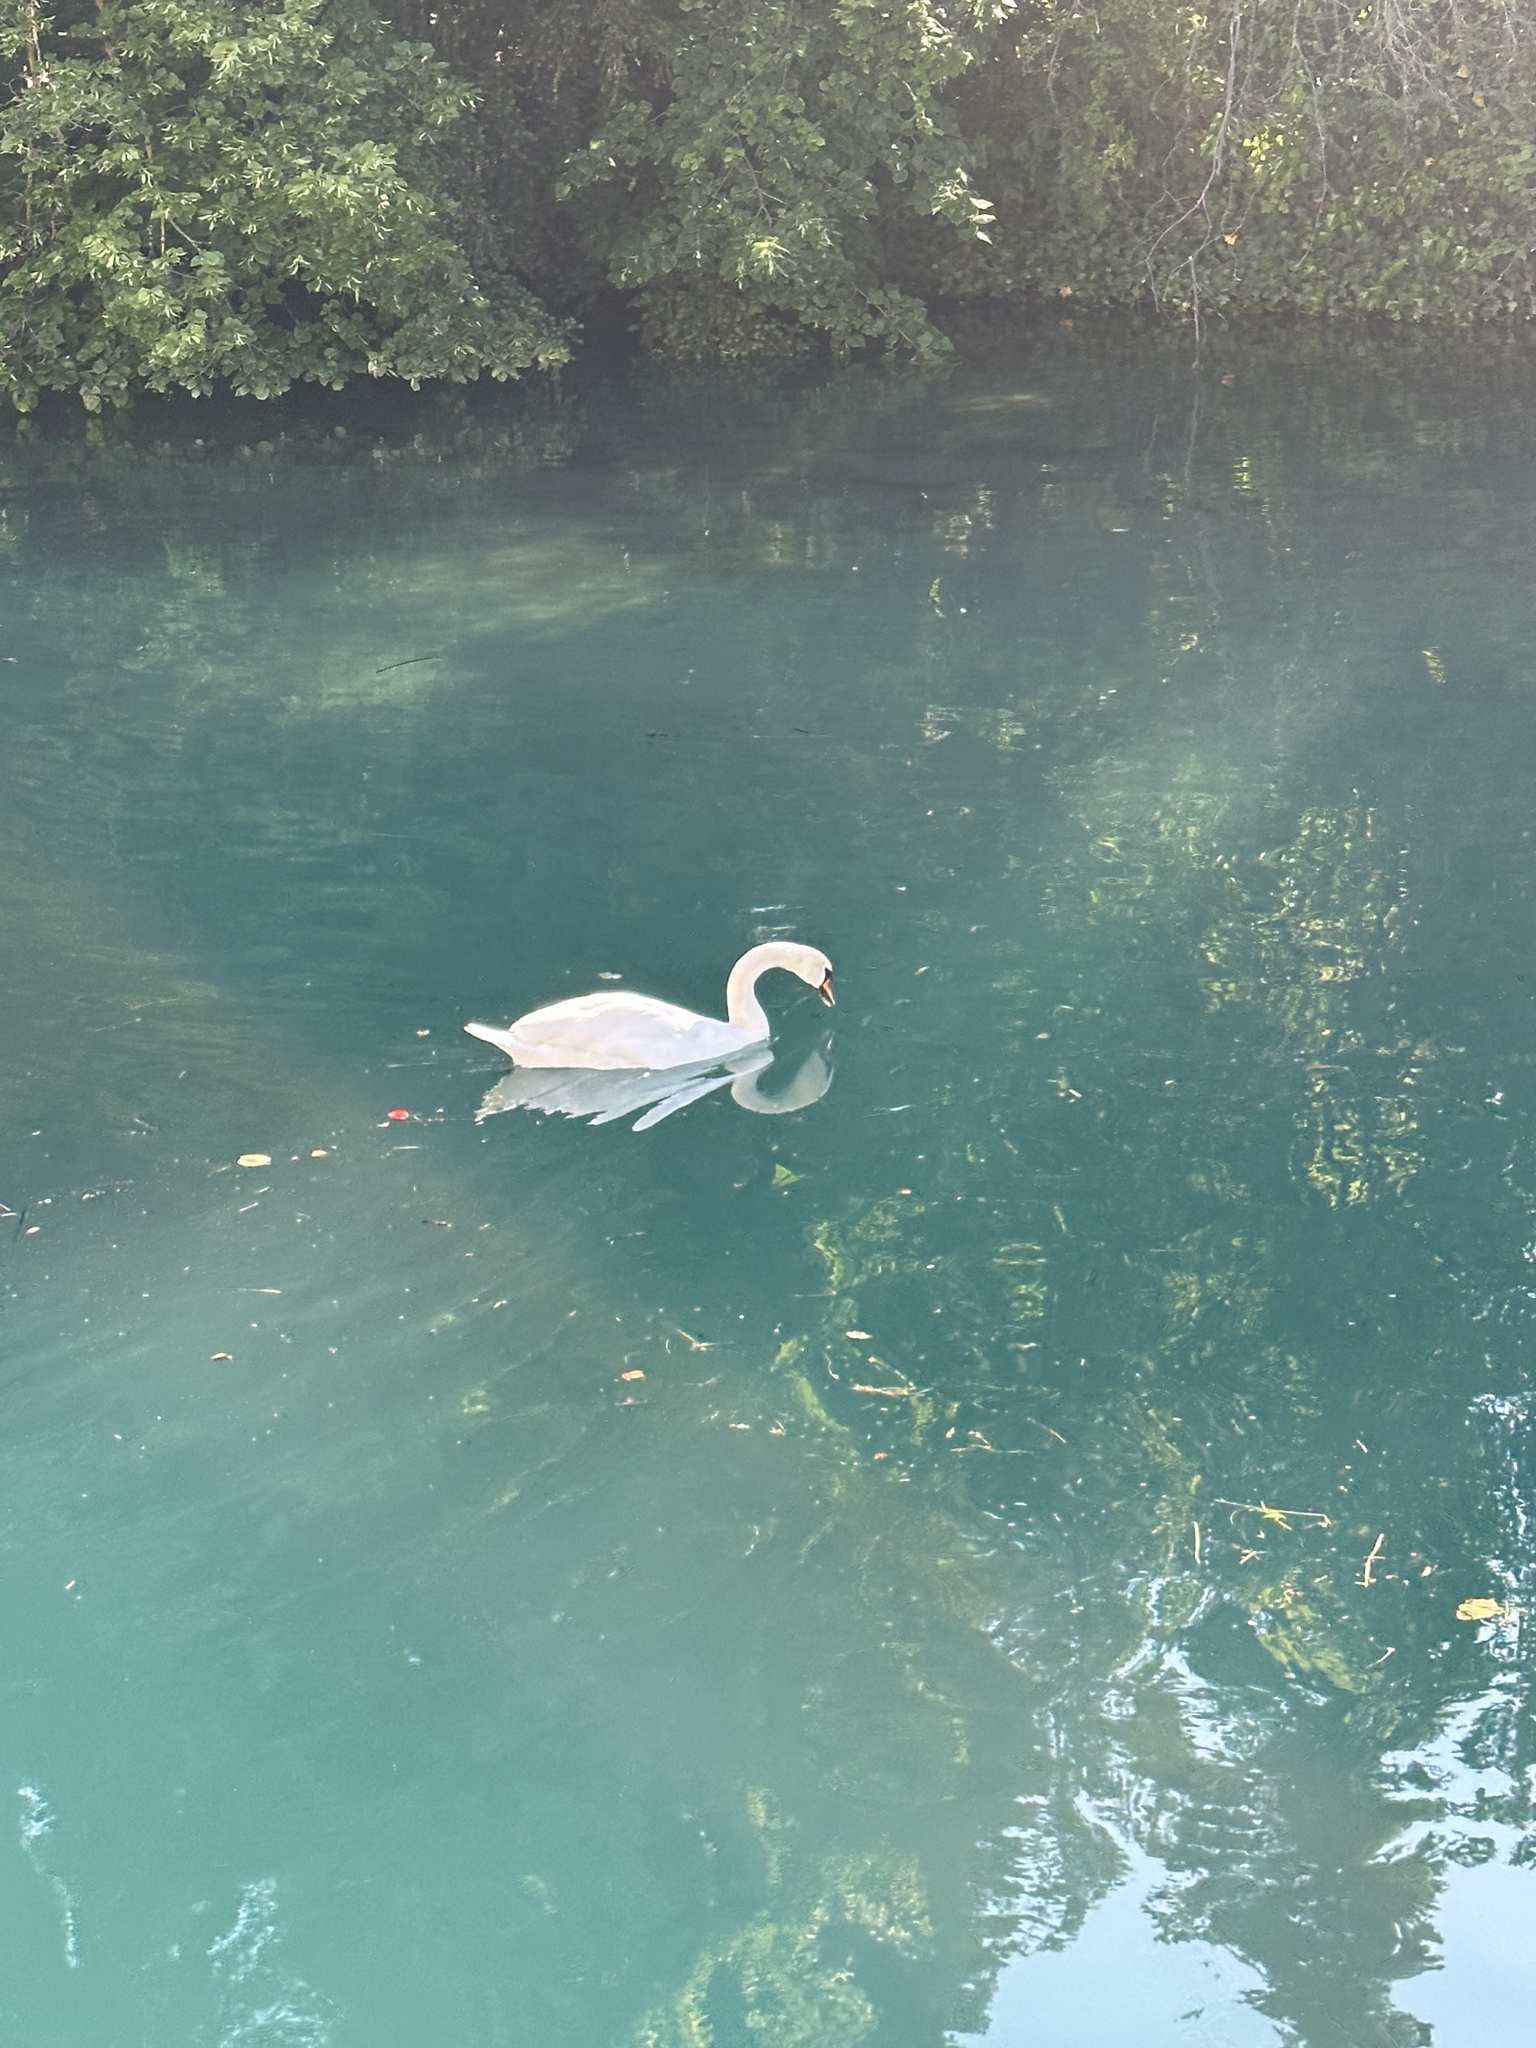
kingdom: Animalia
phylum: Chordata
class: Aves
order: Anseriformes
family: Anatidae
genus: Cygnus
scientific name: Cygnus olor
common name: Mute swan
